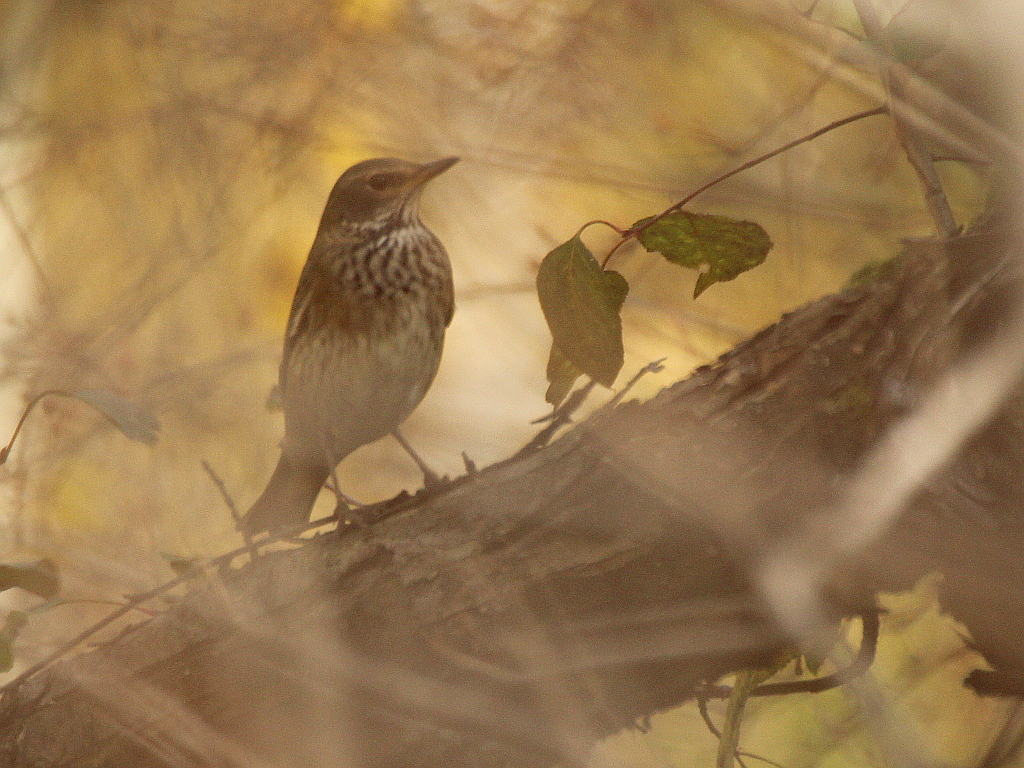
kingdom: Animalia
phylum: Chordata
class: Aves
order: Passeriformes
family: Turdidae
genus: Turdus
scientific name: Turdus atrogularis
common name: Black-throated thrush
